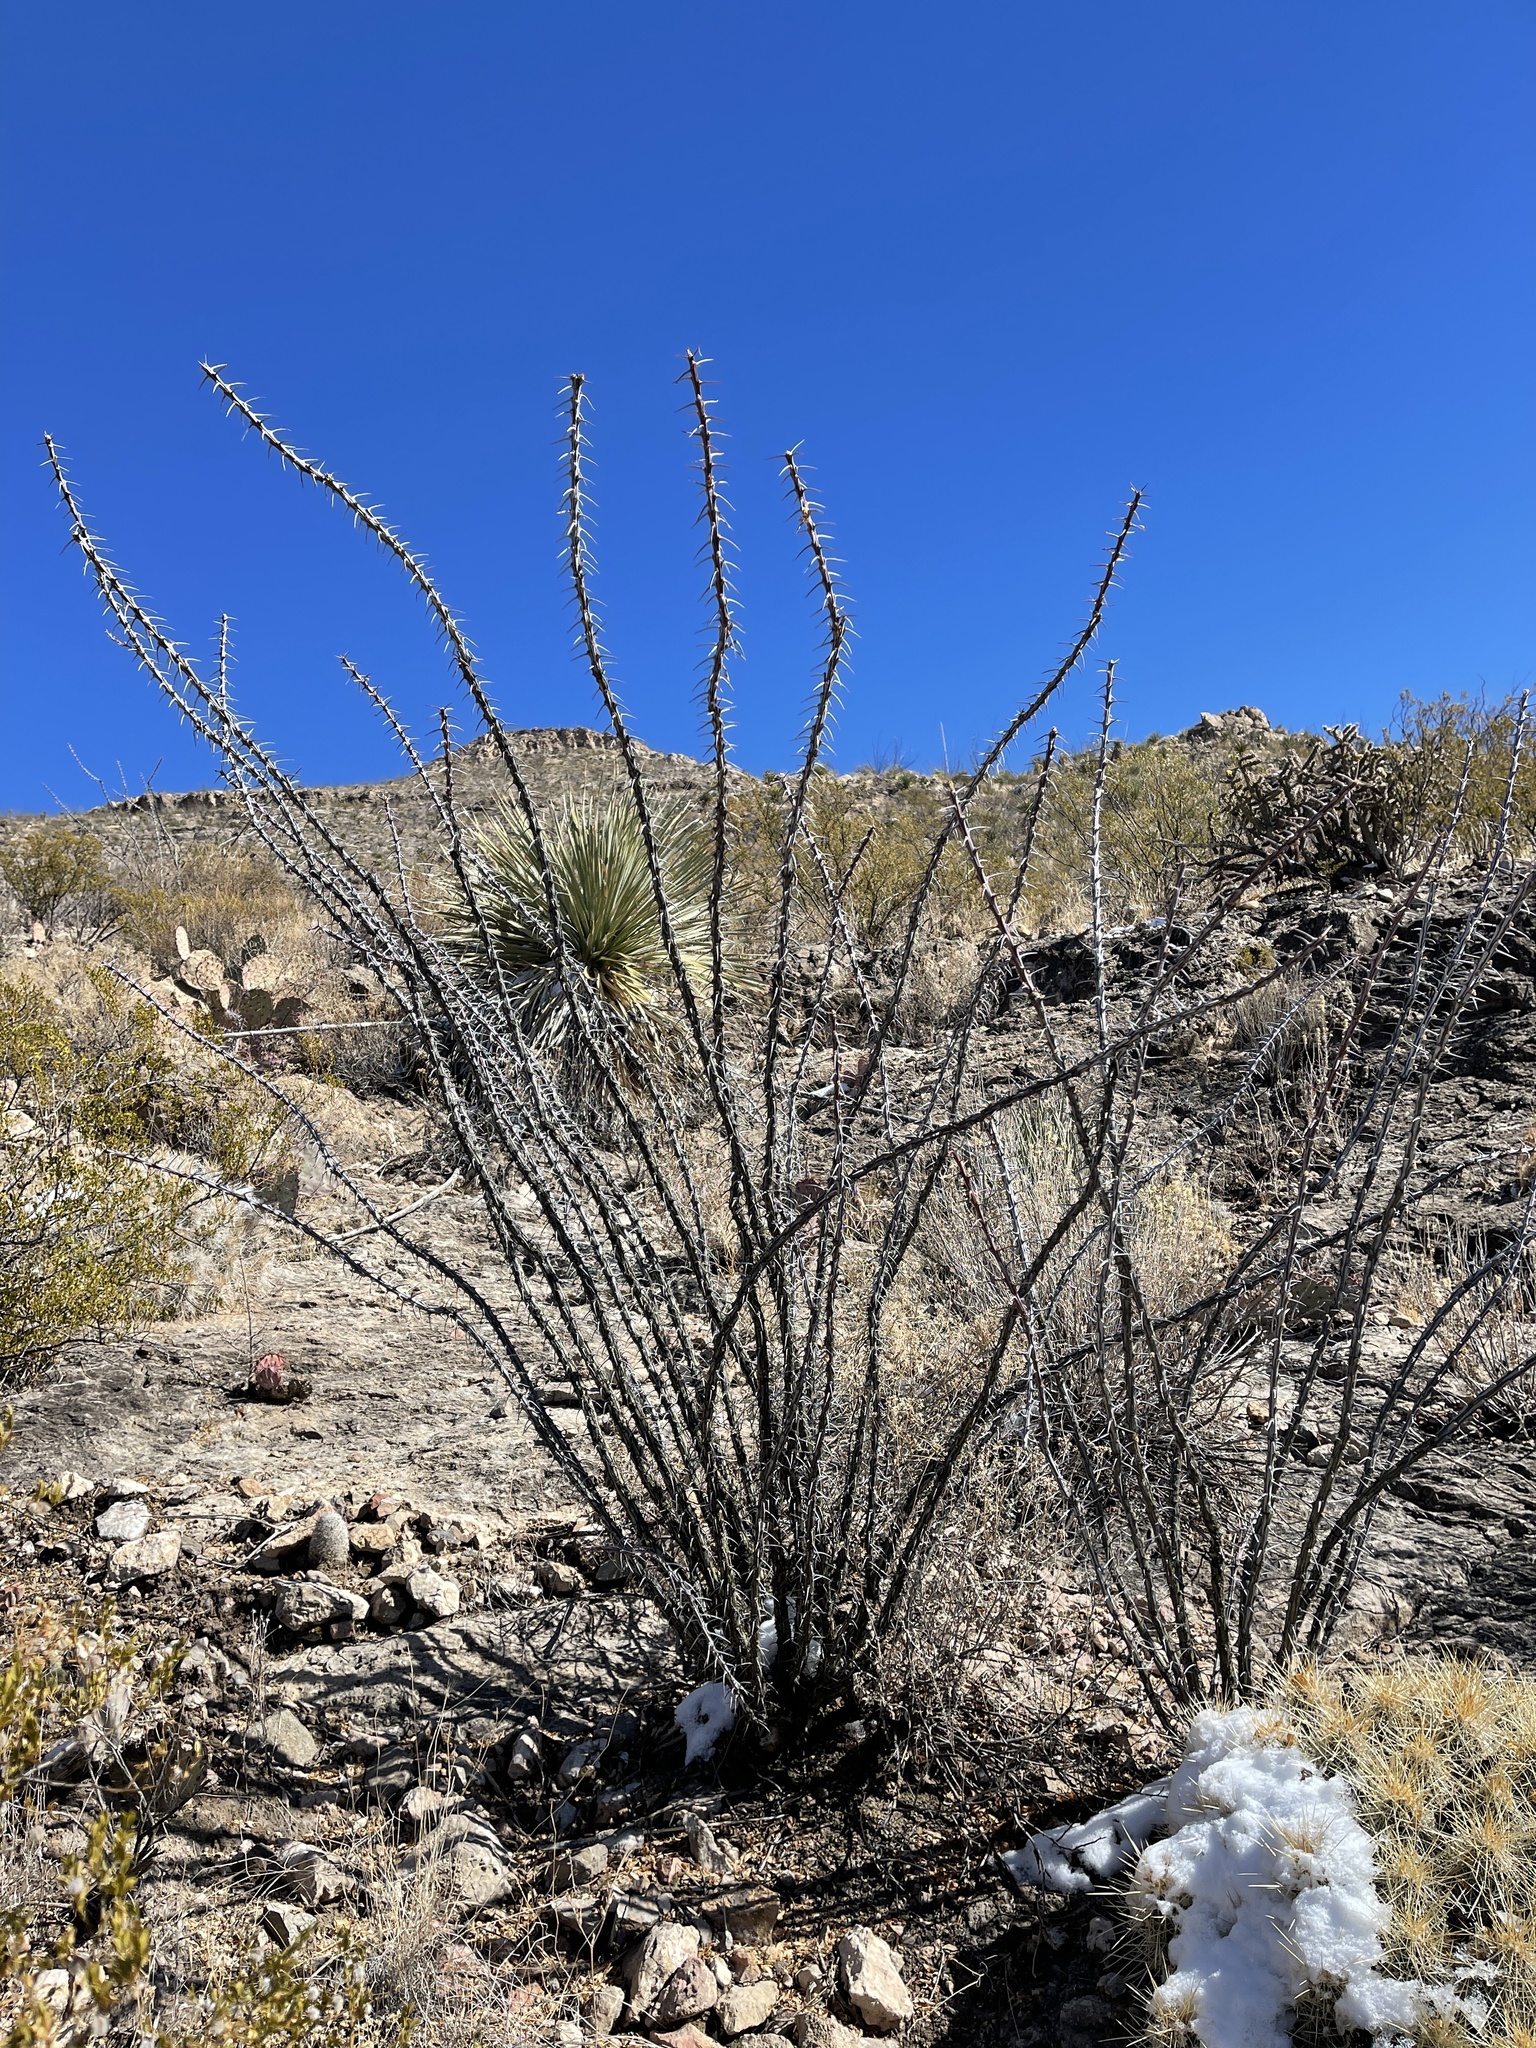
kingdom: Plantae
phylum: Tracheophyta
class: Magnoliopsida
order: Ericales
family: Fouquieriaceae
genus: Fouquieria
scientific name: Fouquieria splendens
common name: Vine-cactus
